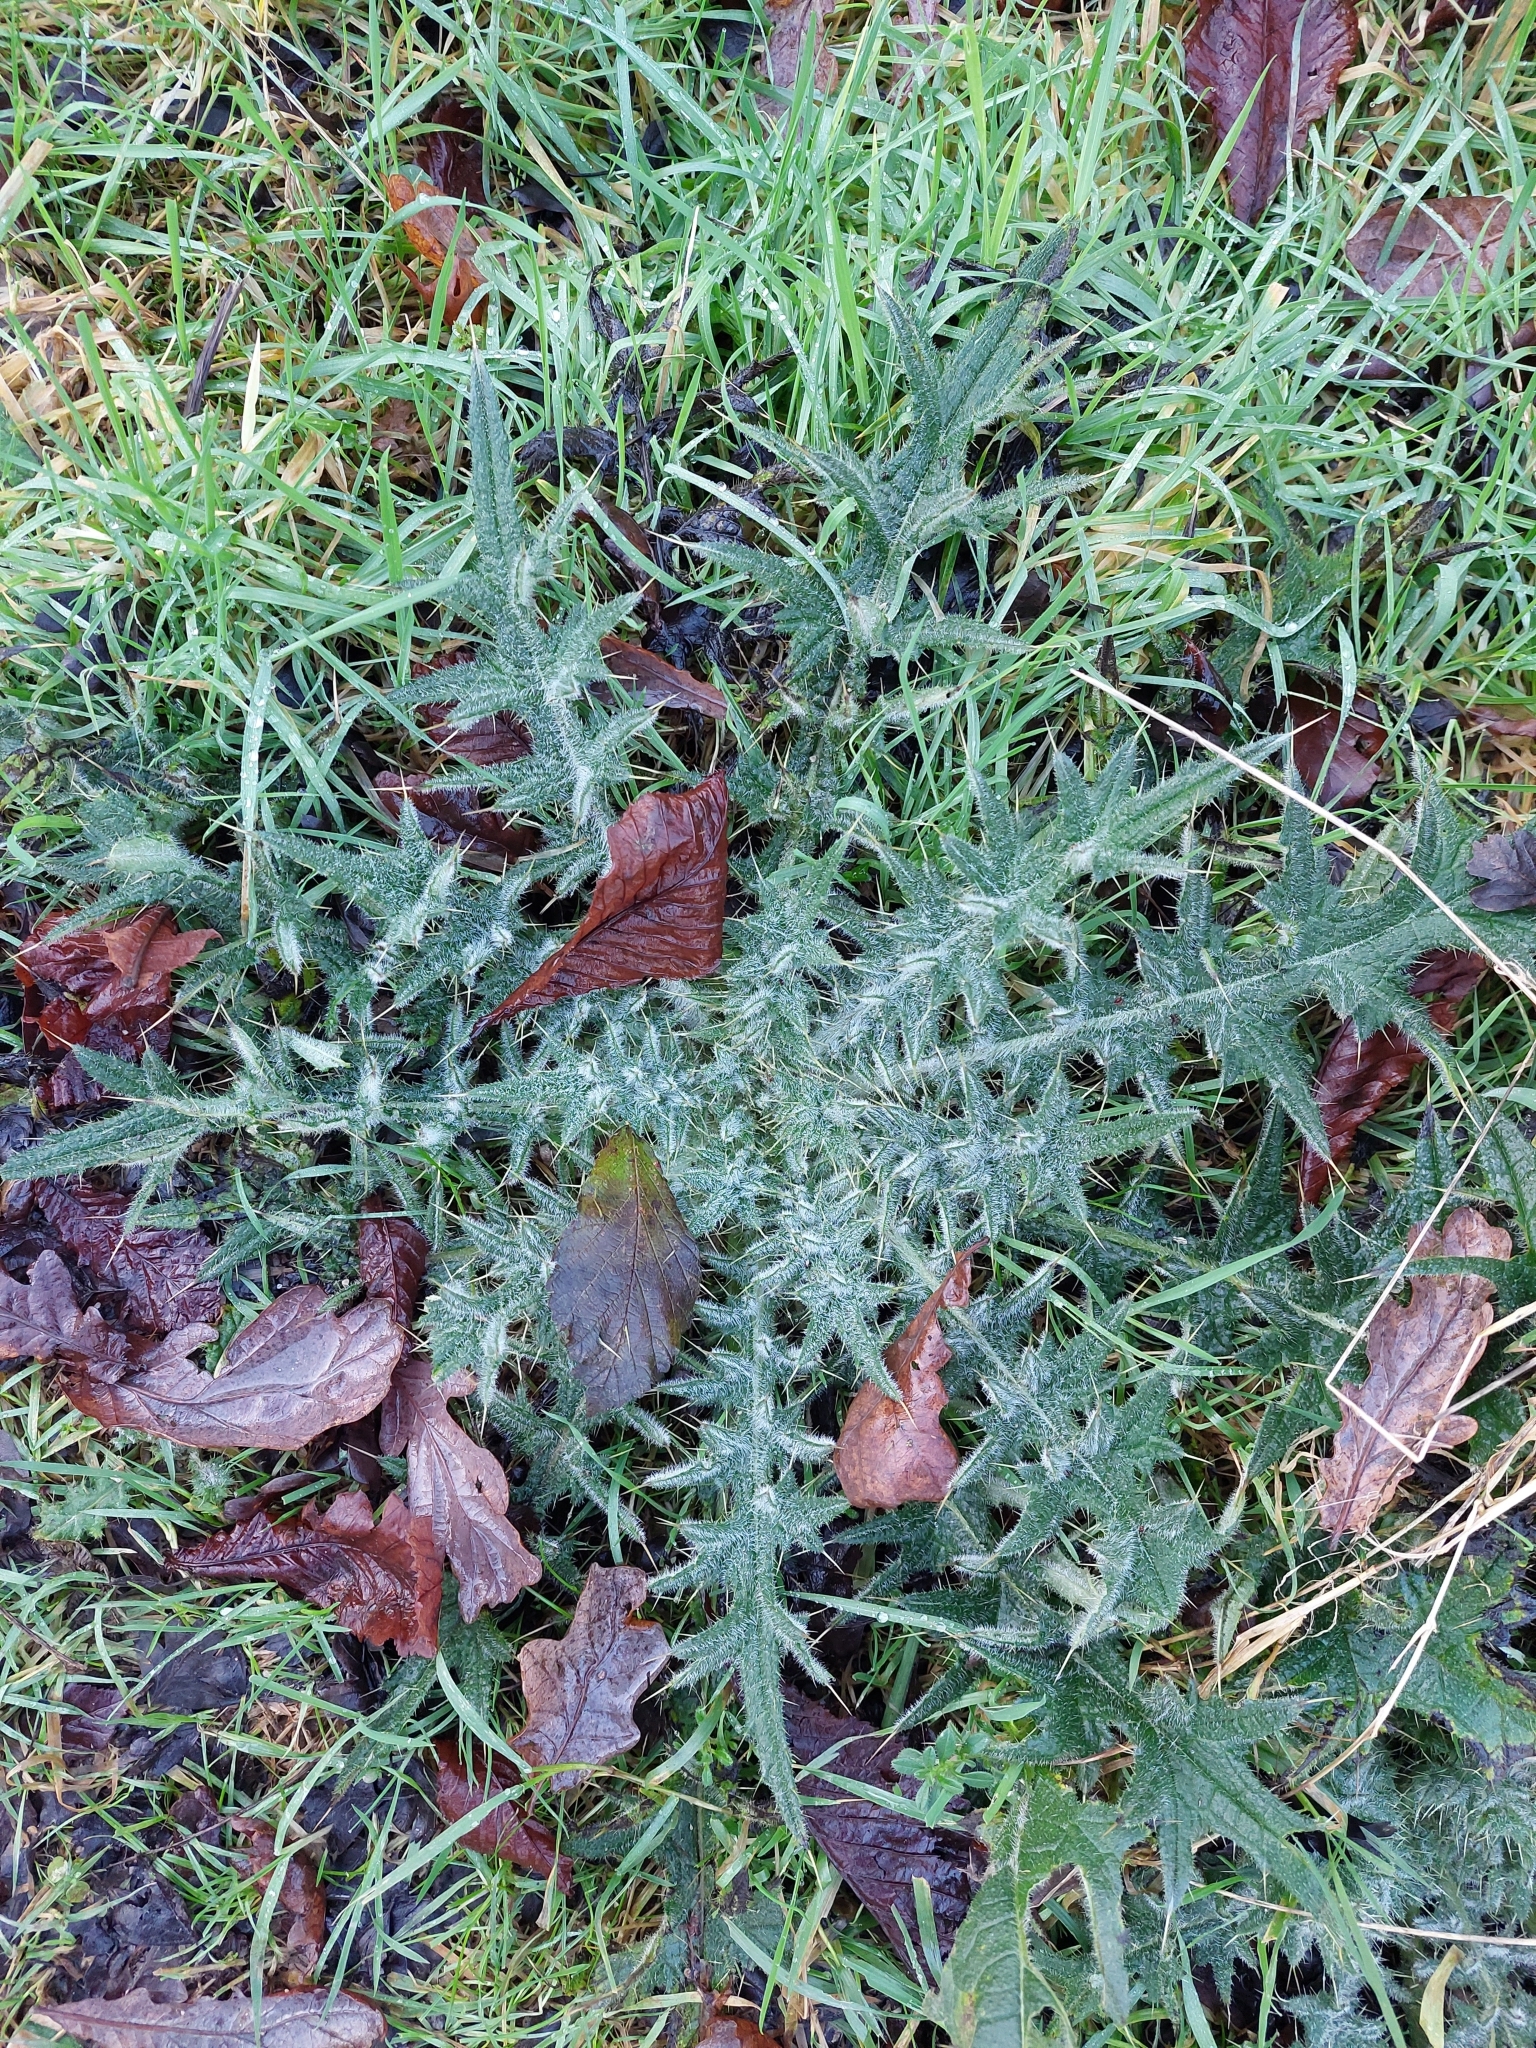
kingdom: Plantae
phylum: Tracheophyta
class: Magnoliopsida
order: Asterales
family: Asteraceae
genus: Cirsium
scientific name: Cirsium vulgare
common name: Bull thistle
